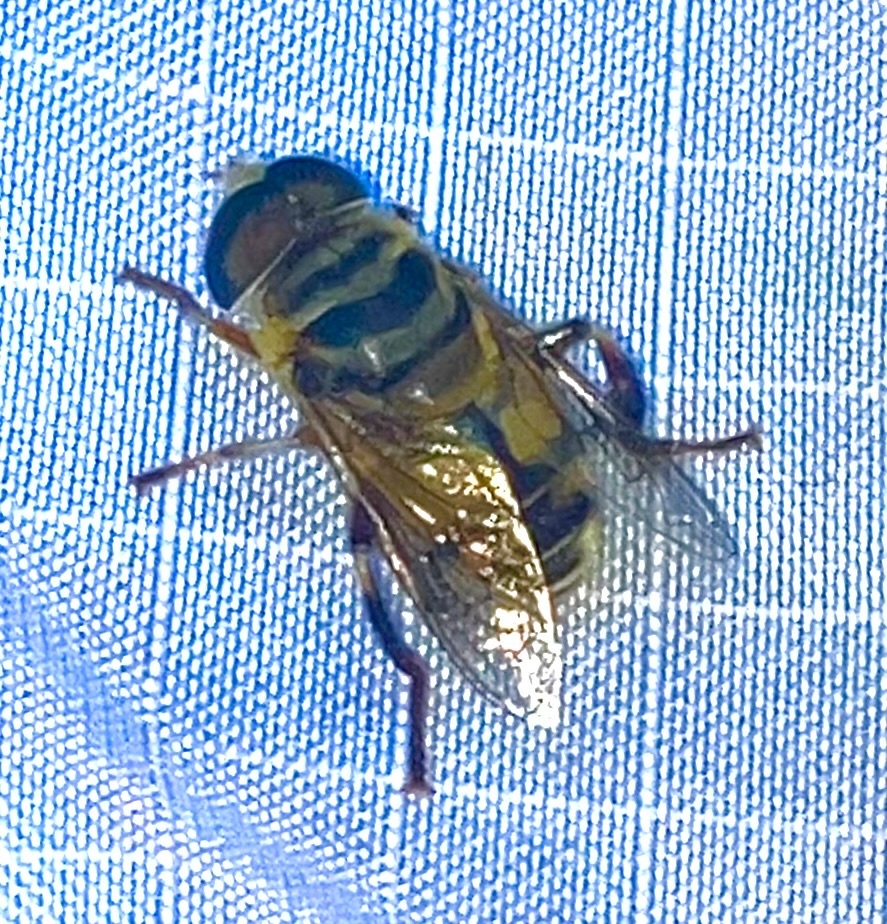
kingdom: Animalia
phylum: Arthropoda
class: Insecta
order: Diptera
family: Syrphidae
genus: Palpada
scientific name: Palpada vinetorum
